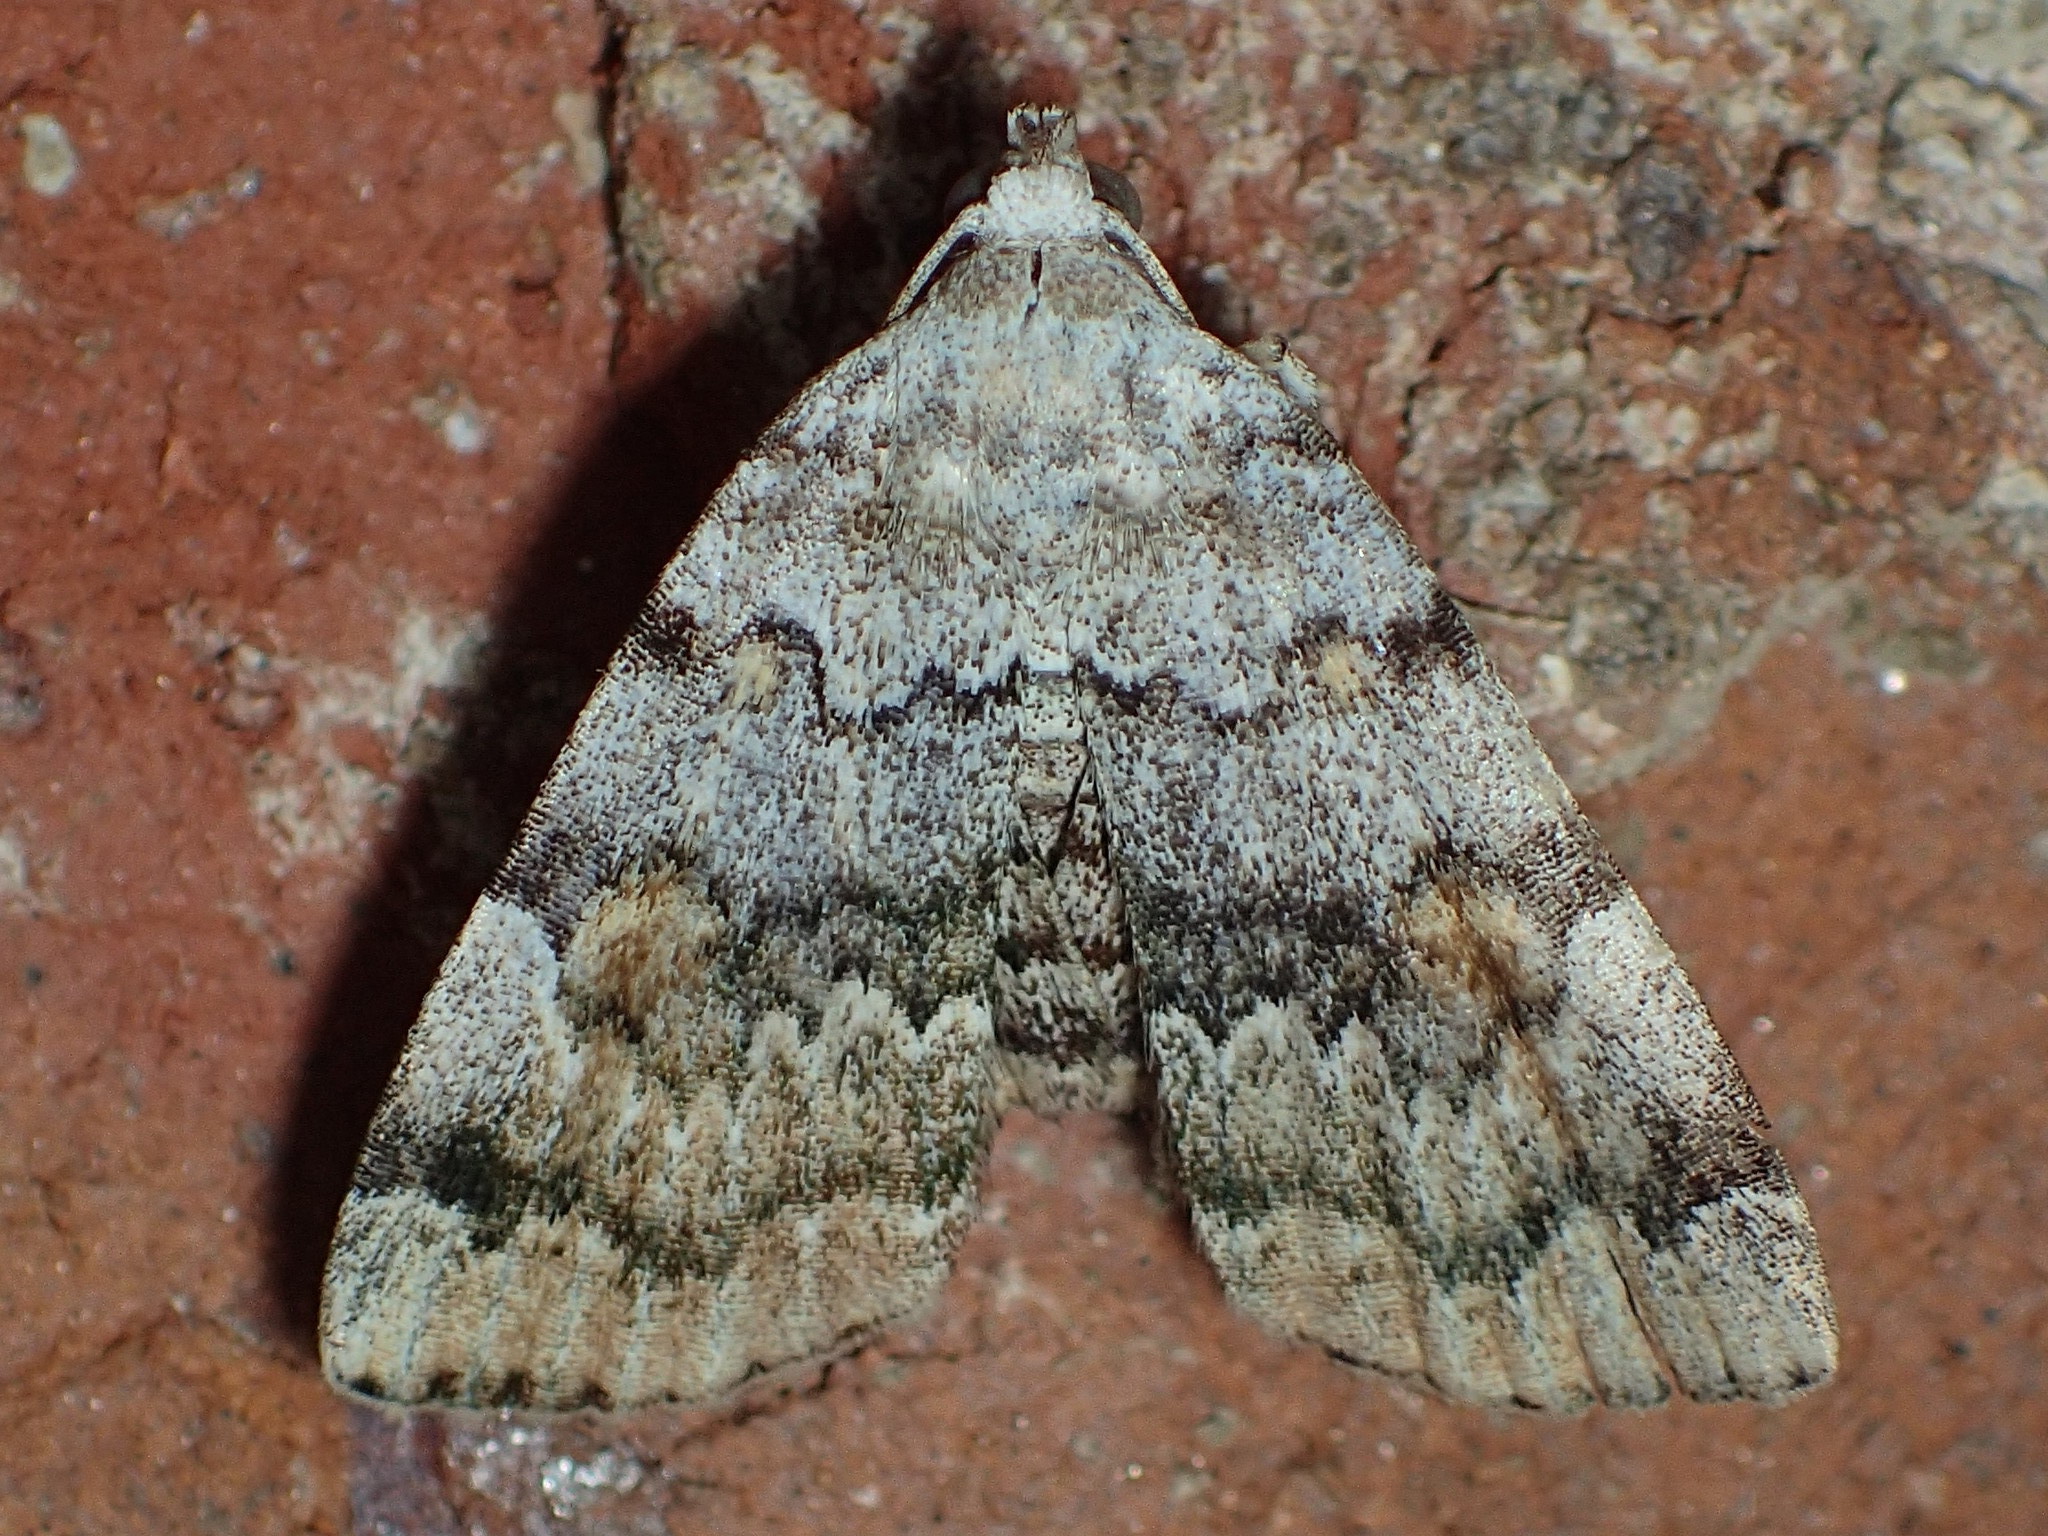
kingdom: Animalia
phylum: Arthropoda
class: Insecta
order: Lepidoptera
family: Erebidae
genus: Idia
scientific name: Idia americalis
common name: American idia moth
